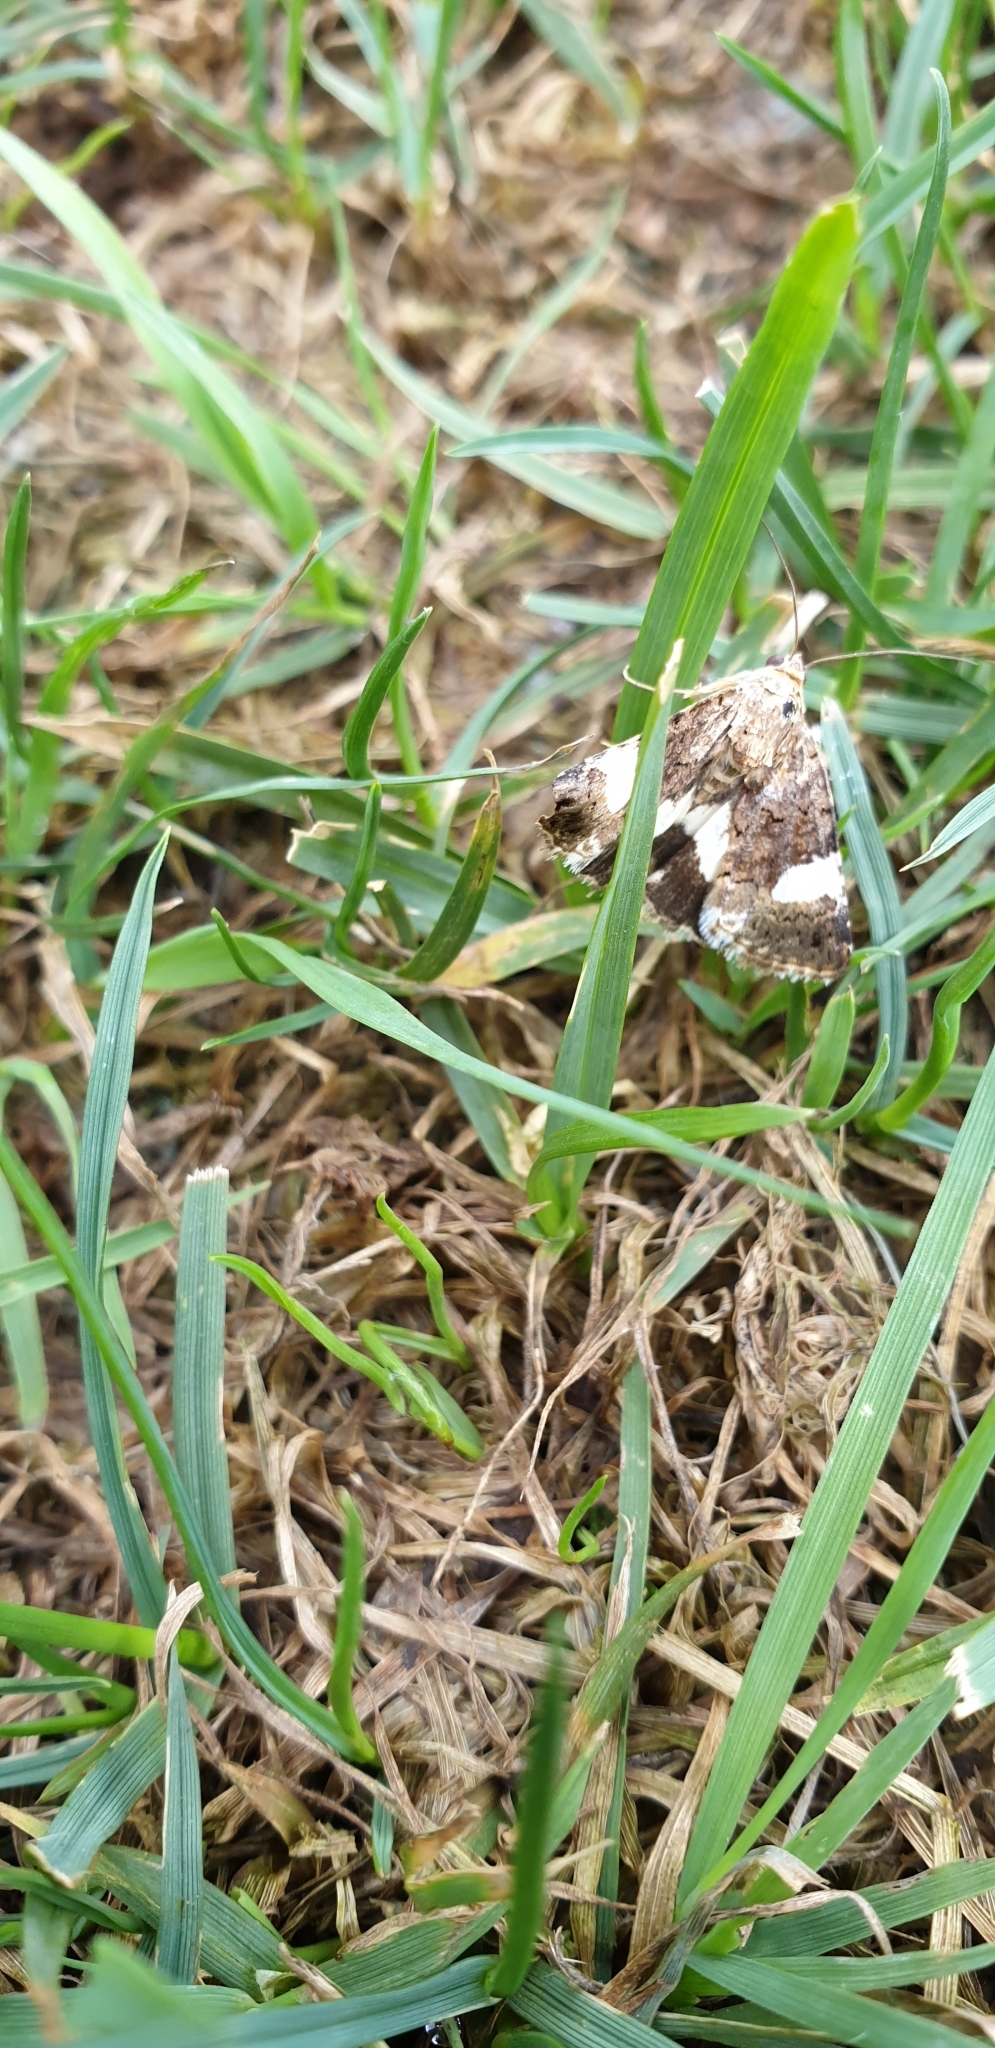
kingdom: Animalia
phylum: Arthropoda
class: Insecta
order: Lepidoptera
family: Erebidae
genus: Tyta
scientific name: Tyta luctuosa
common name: Four-spotted
